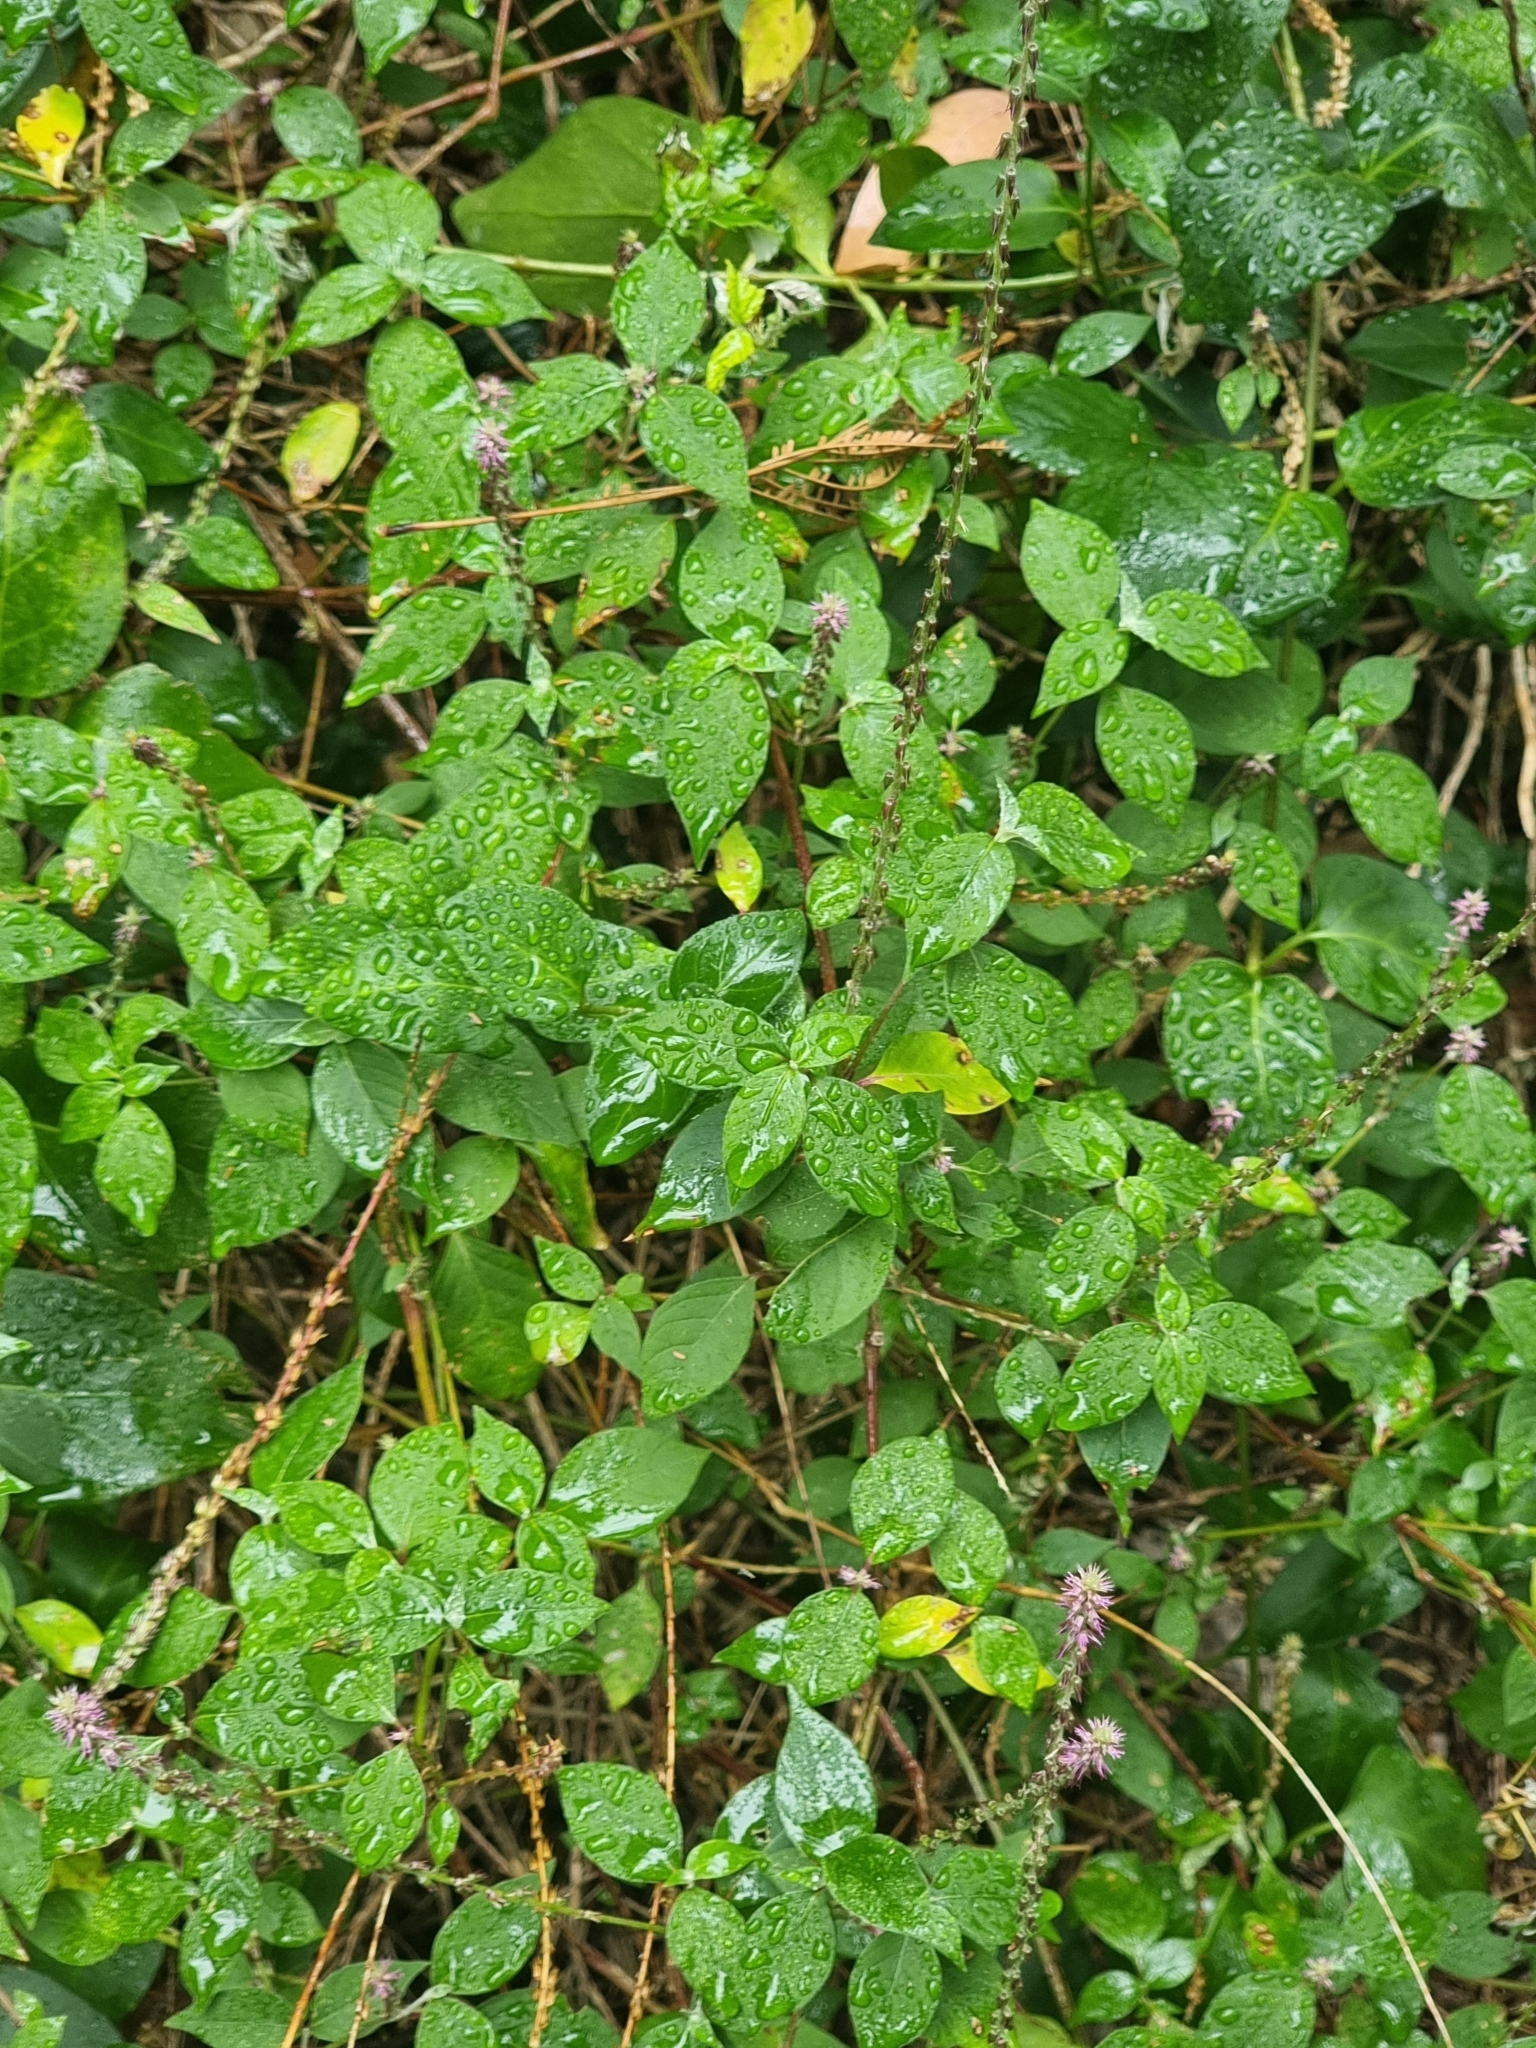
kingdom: Plantae
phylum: Tracheophyta
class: Magnoliopsida
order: Caryophyllales
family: Amaranthaceae
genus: Achyranthes
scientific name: Achyranthes aspera
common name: Devil's horsewhip
